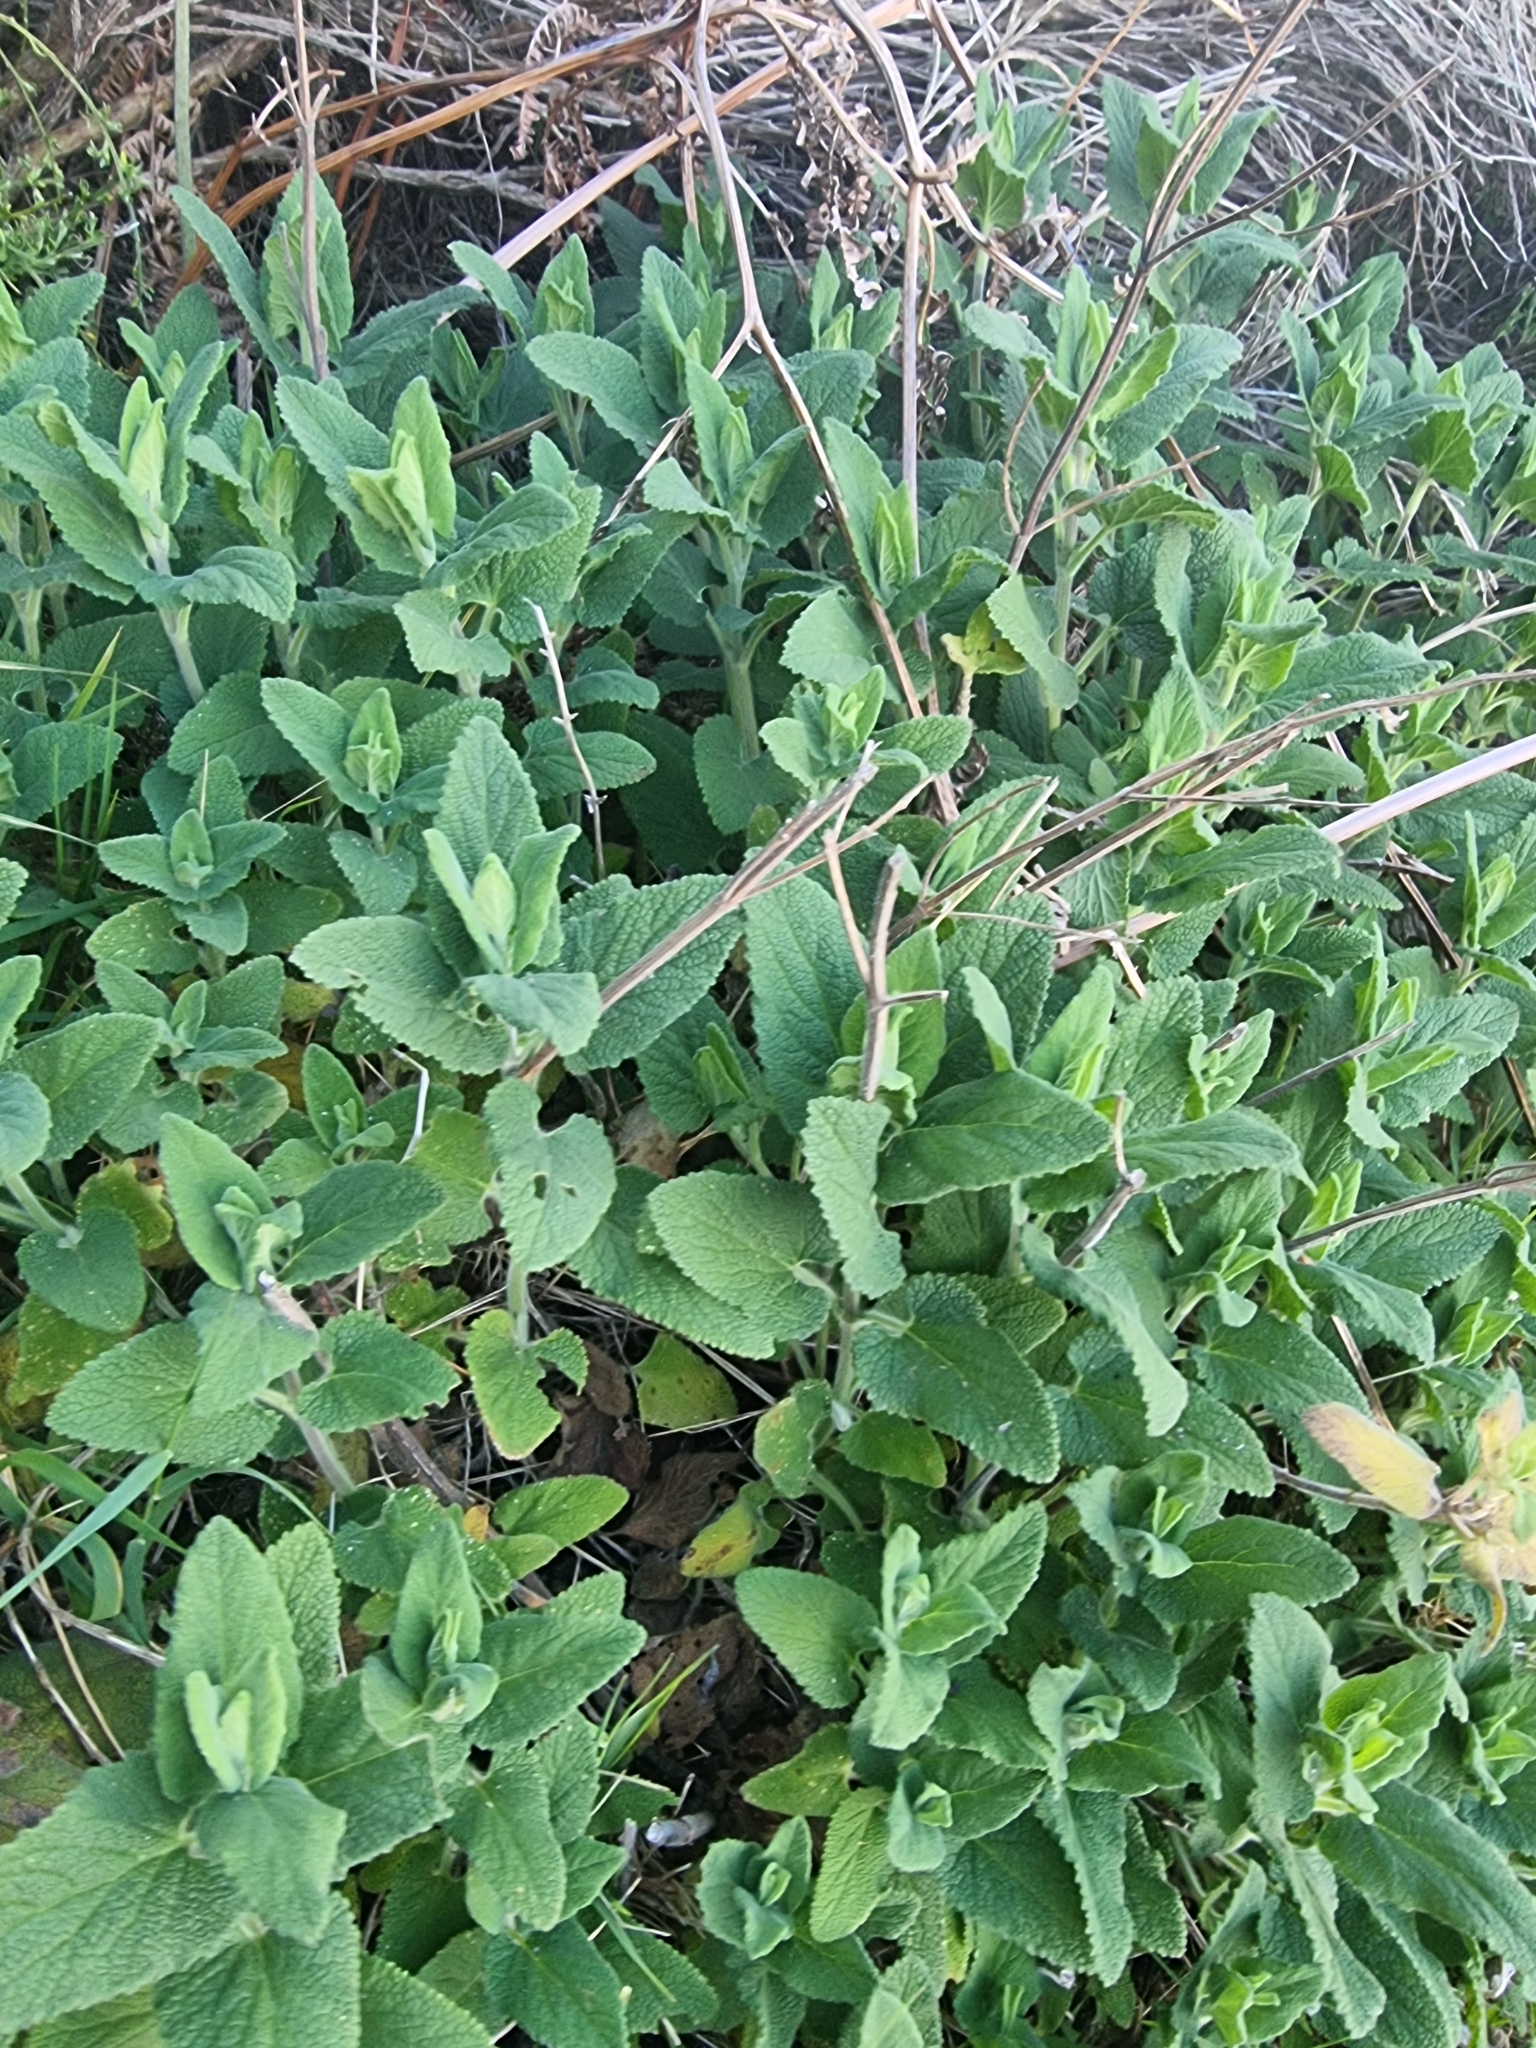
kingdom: Plantae
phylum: Tracheophyta
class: Magnoliopsida
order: Lamiales
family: Lamiaceae
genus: Teucrium
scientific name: Teucrium francoi
